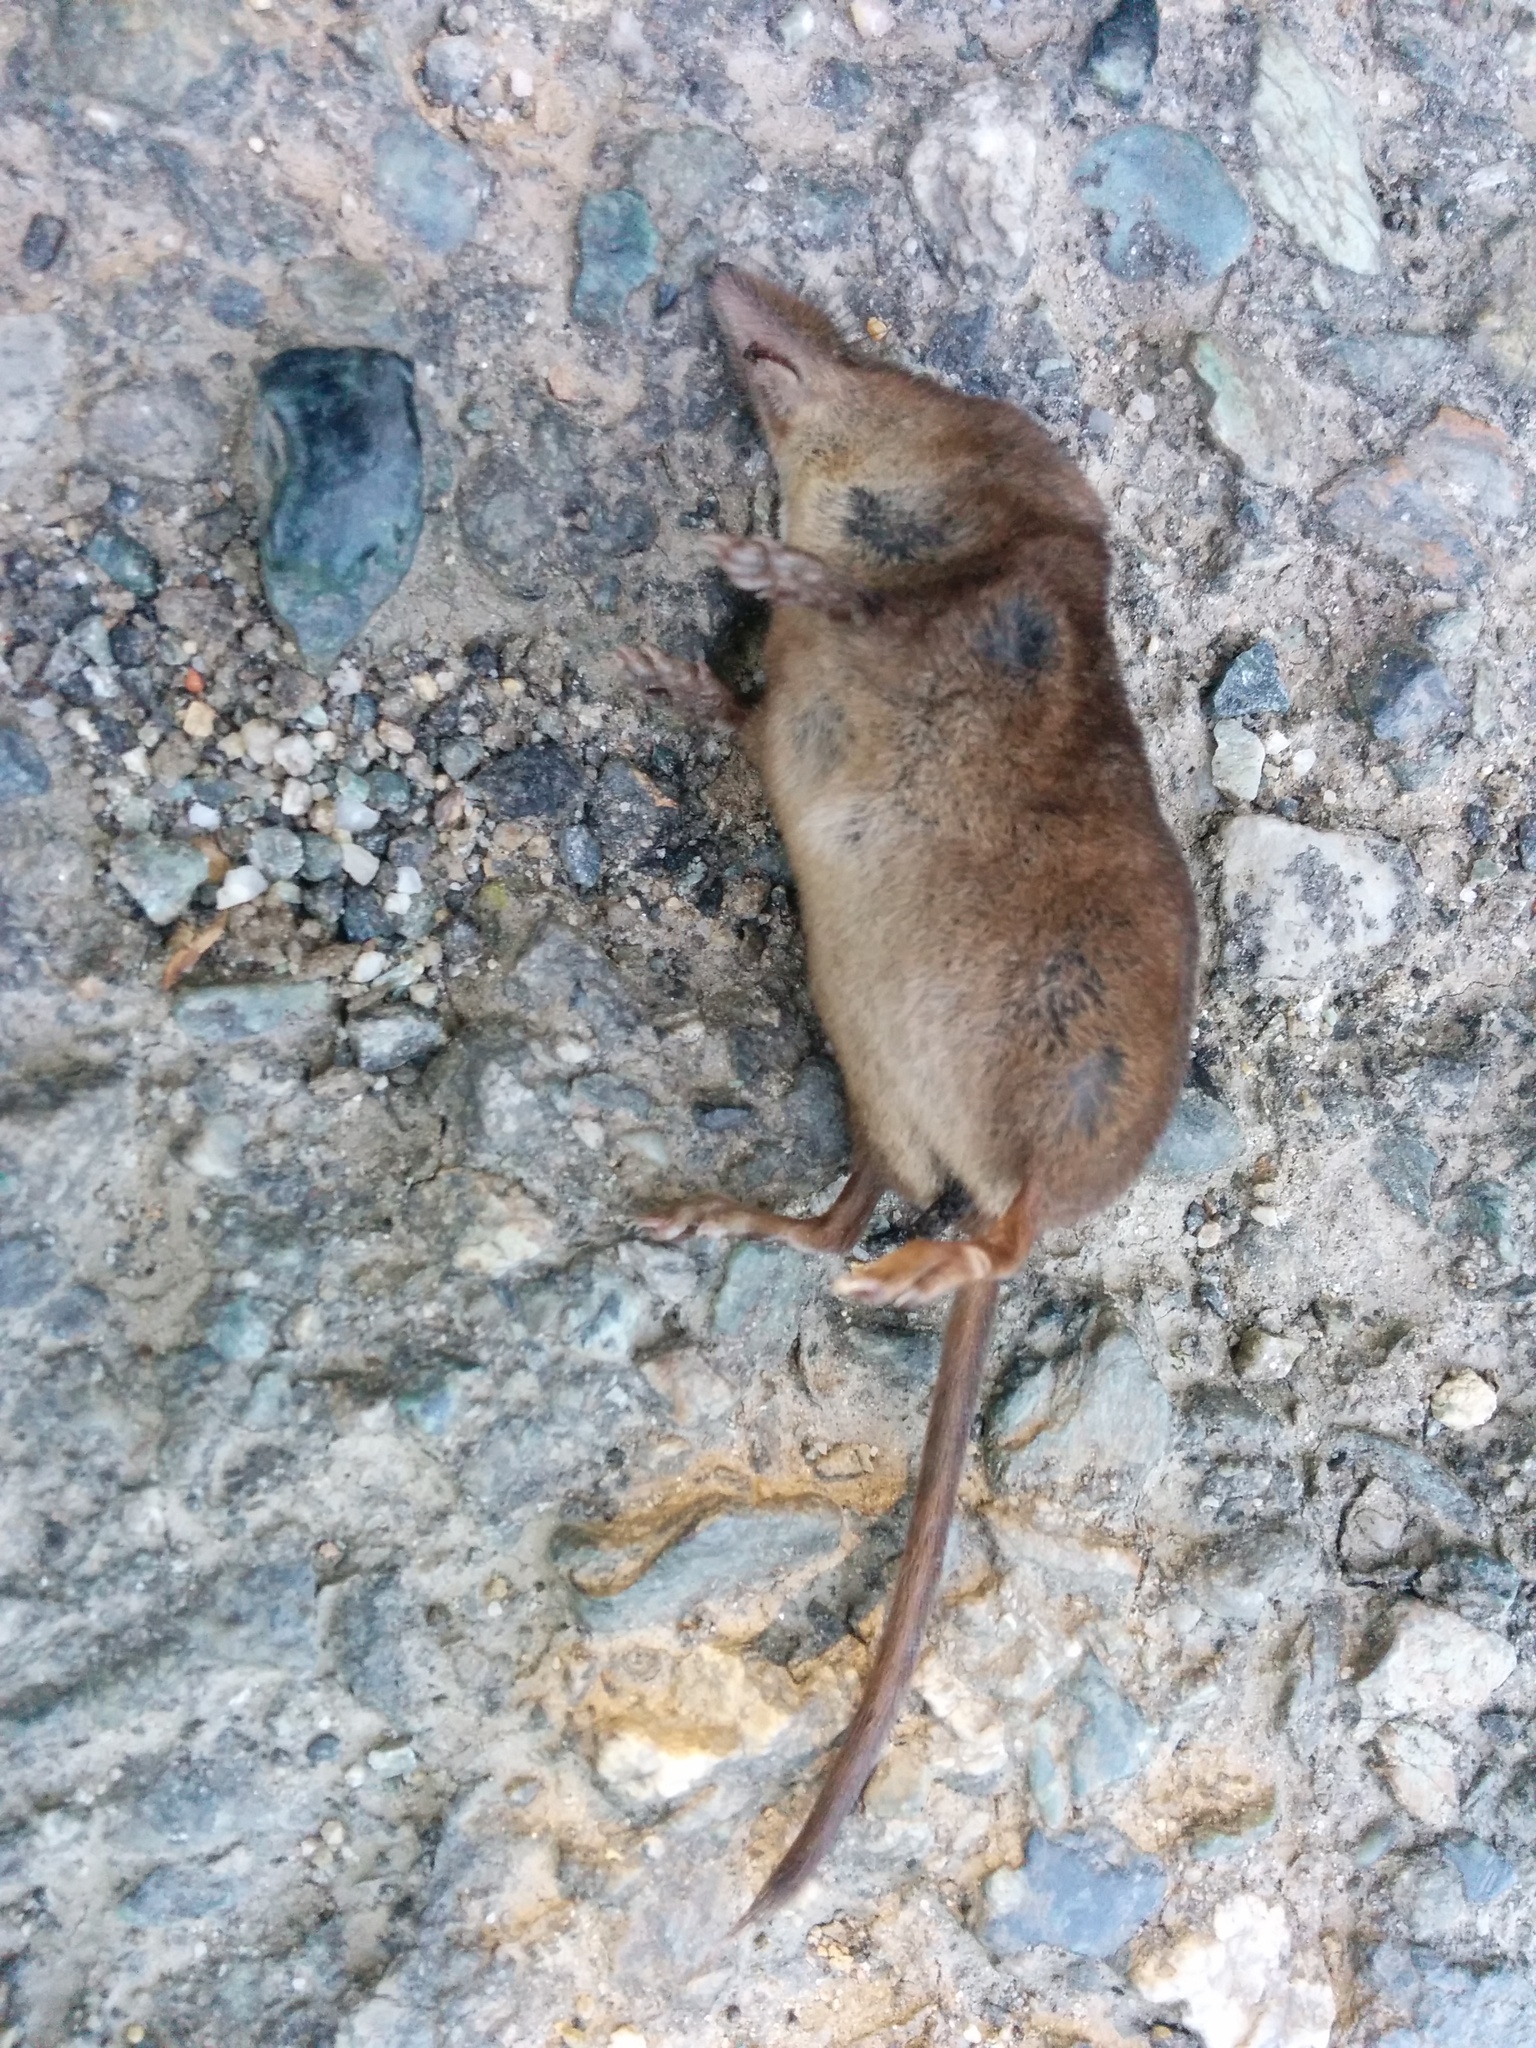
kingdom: Animalia
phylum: Chordata
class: Mammalia
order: Soricomorpha
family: Soricidae
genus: Sorex
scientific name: Sorex antinorii
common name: Valais shrew
